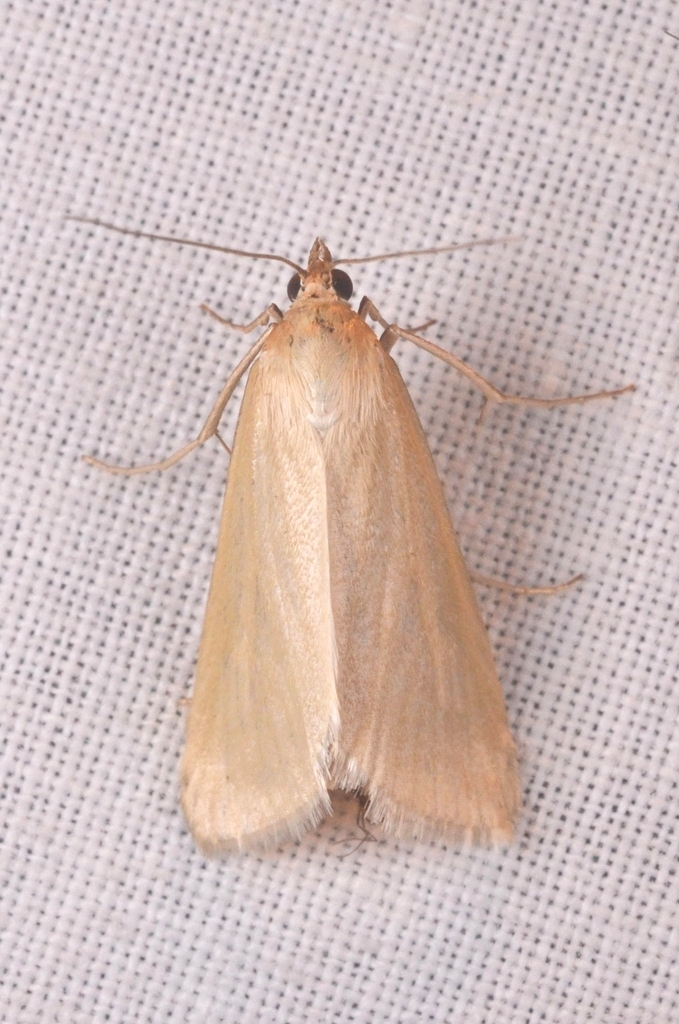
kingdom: Animalia
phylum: Arthropoda
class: Insecta
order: Lepidoptera
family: Crambidae
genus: Loxostege
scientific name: Loxostege turbidalis
